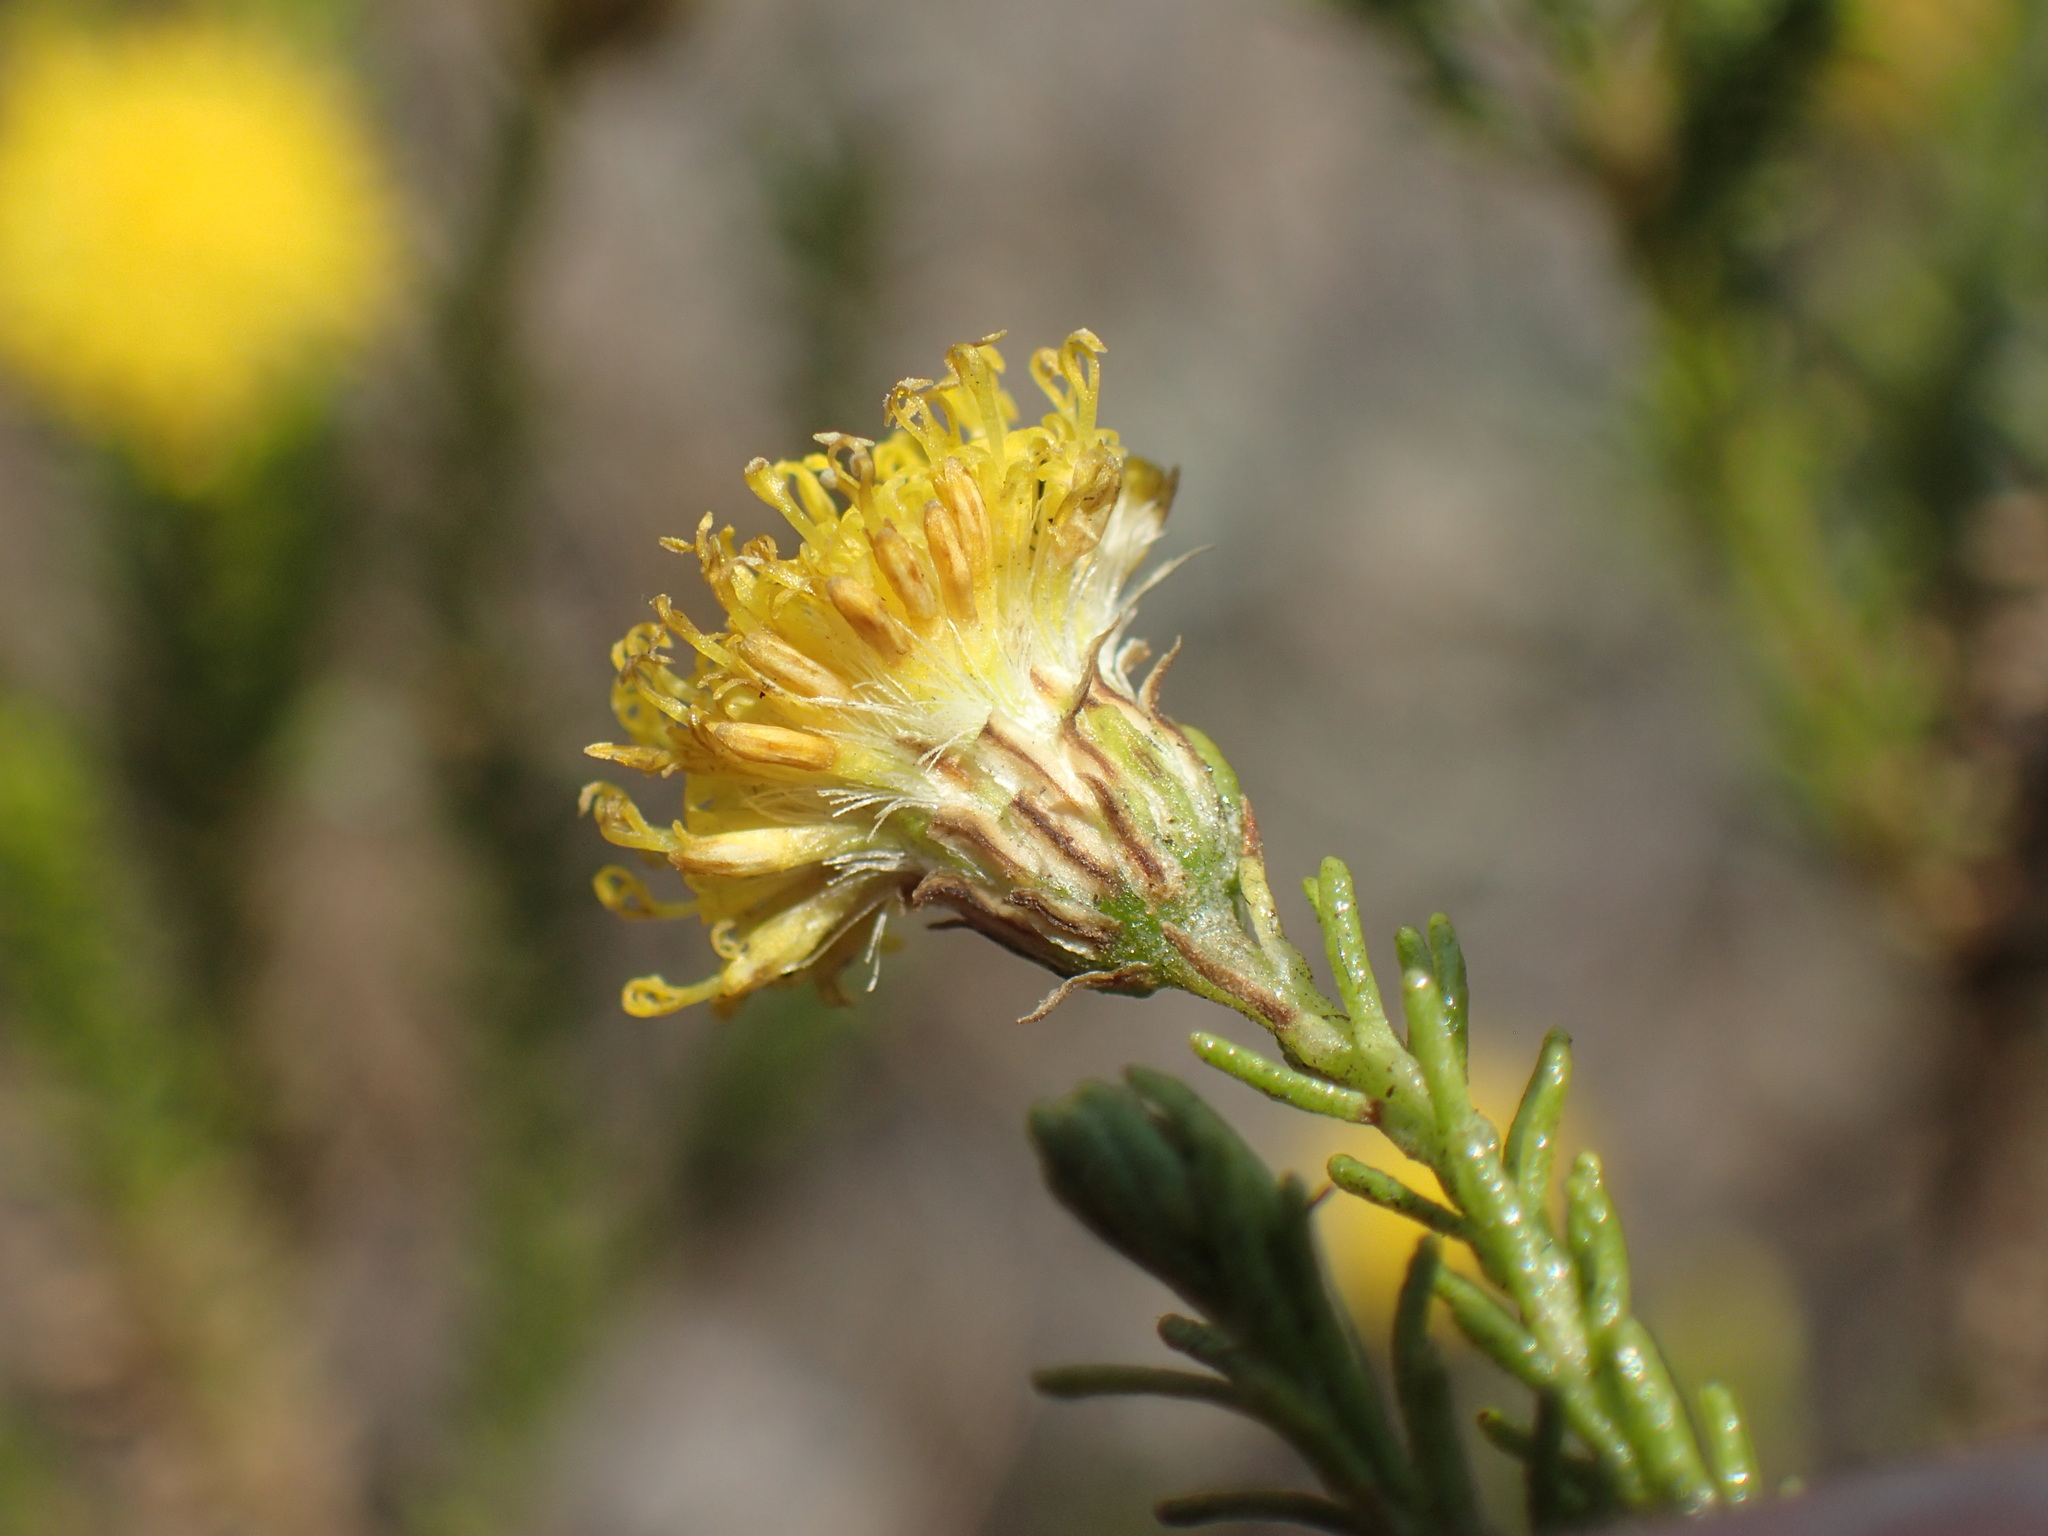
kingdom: Plantae
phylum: Tracheophyta
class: Magnoliopsida
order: Asterales
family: Asteraceae
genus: Chrysocoma
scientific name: Chrysocoma ciliata
